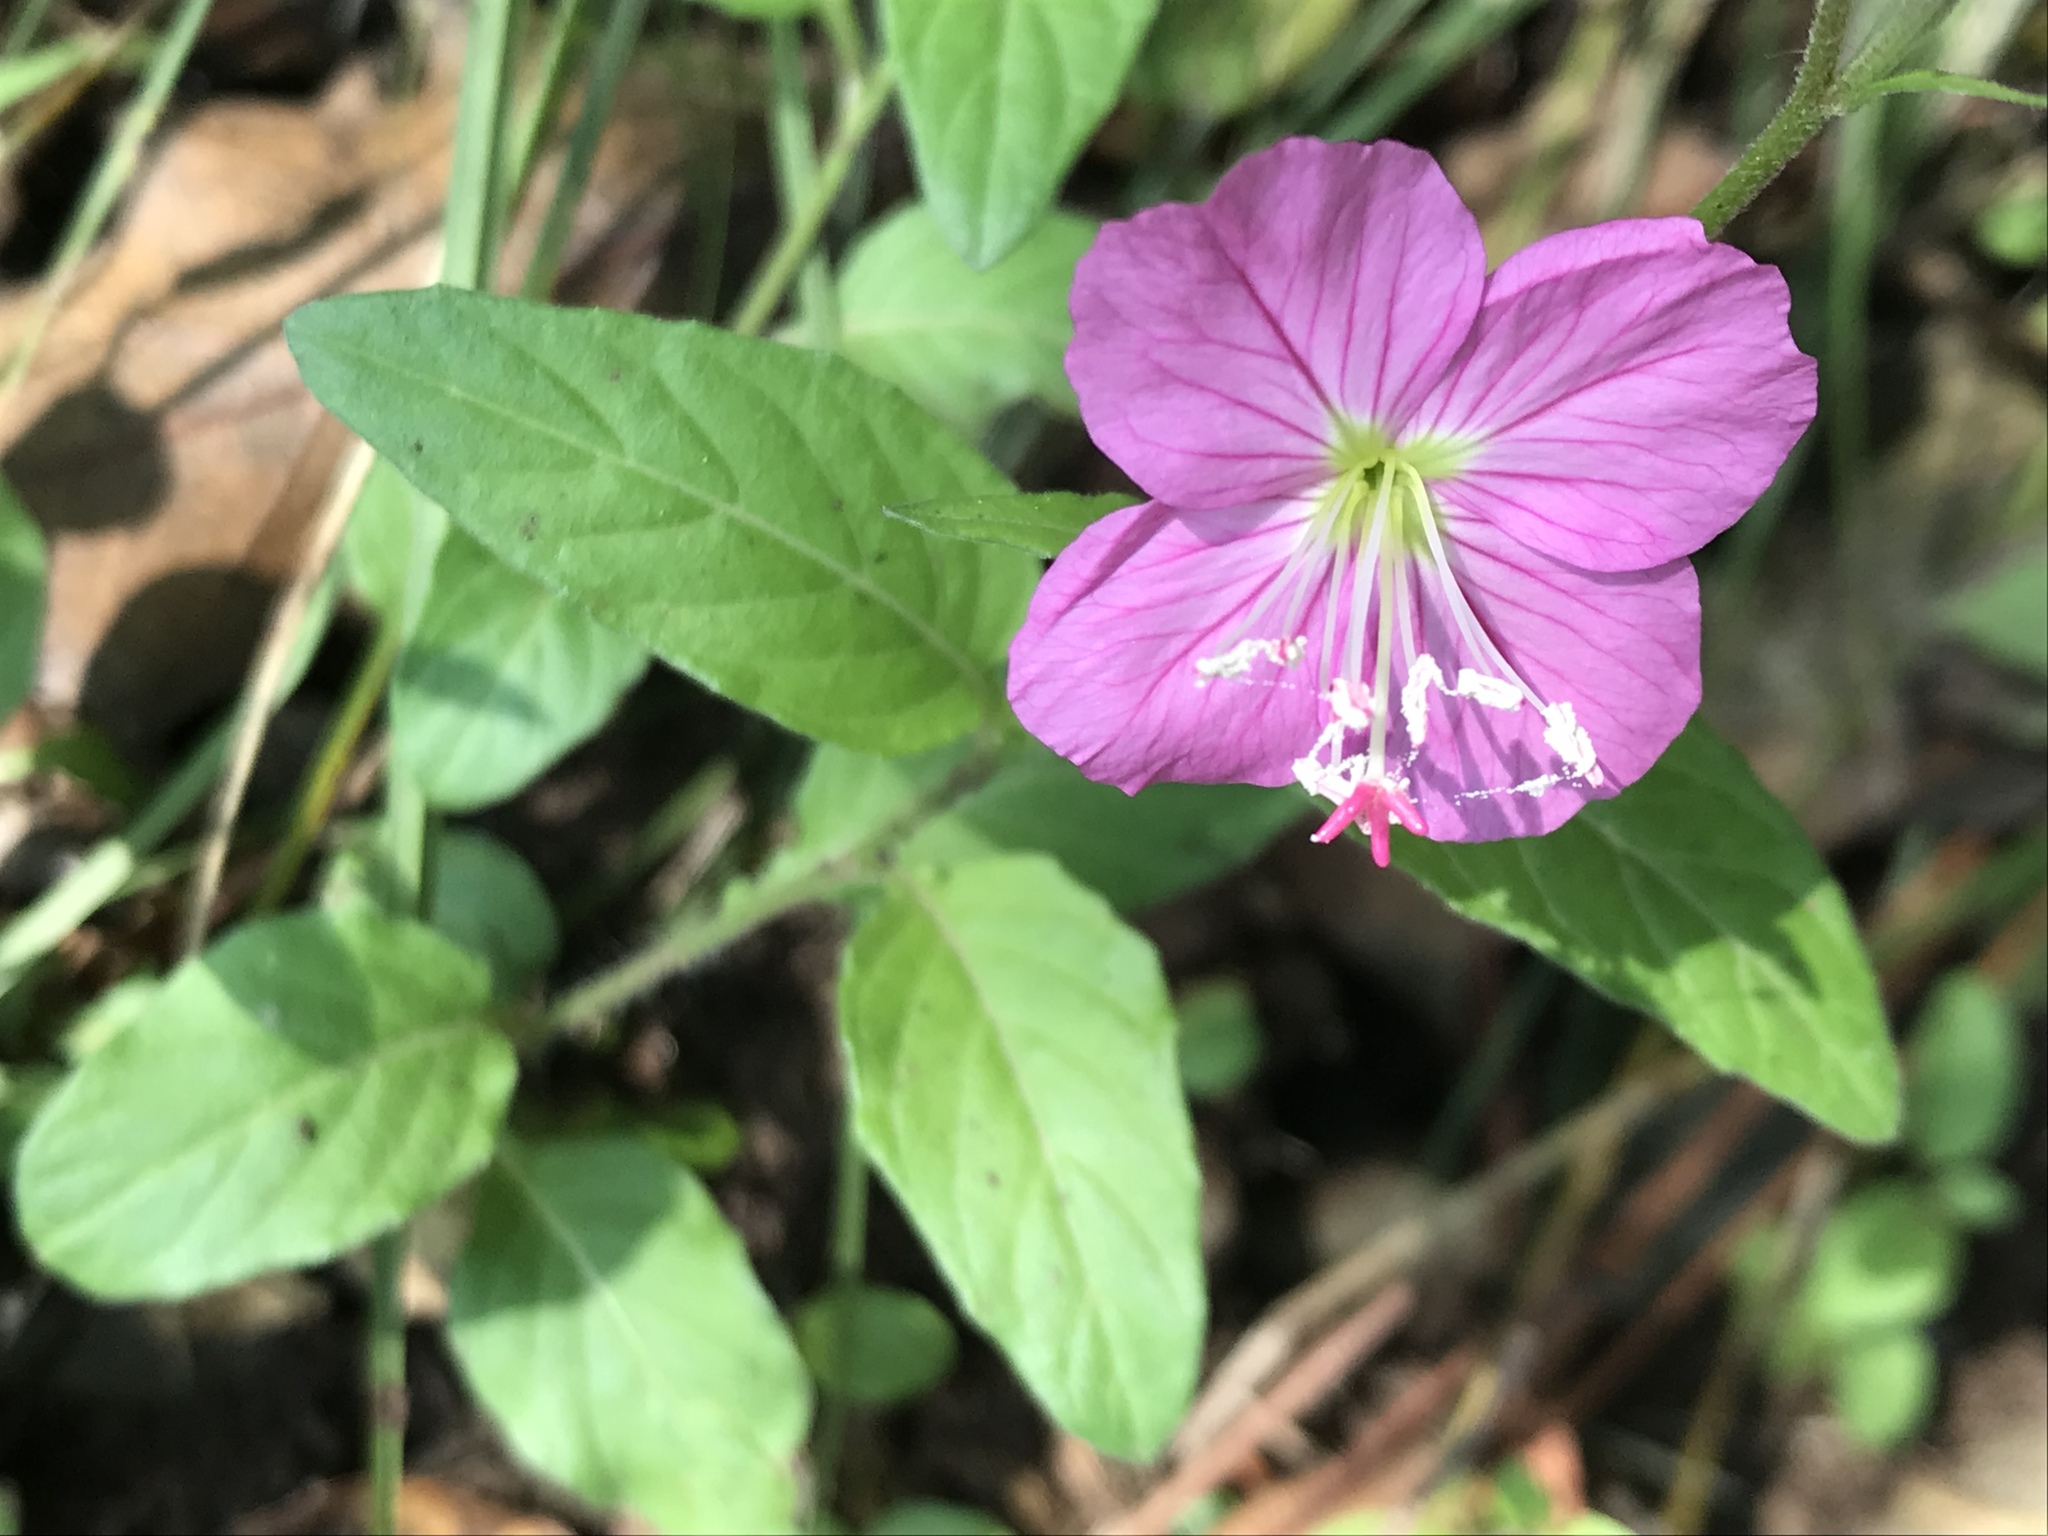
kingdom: Plantae
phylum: Tracheophyta
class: Magnoliopsida
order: Myrtales
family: Onagraceae
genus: Oenothera
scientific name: Oenothera rosea
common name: Rosy evening-primrose
